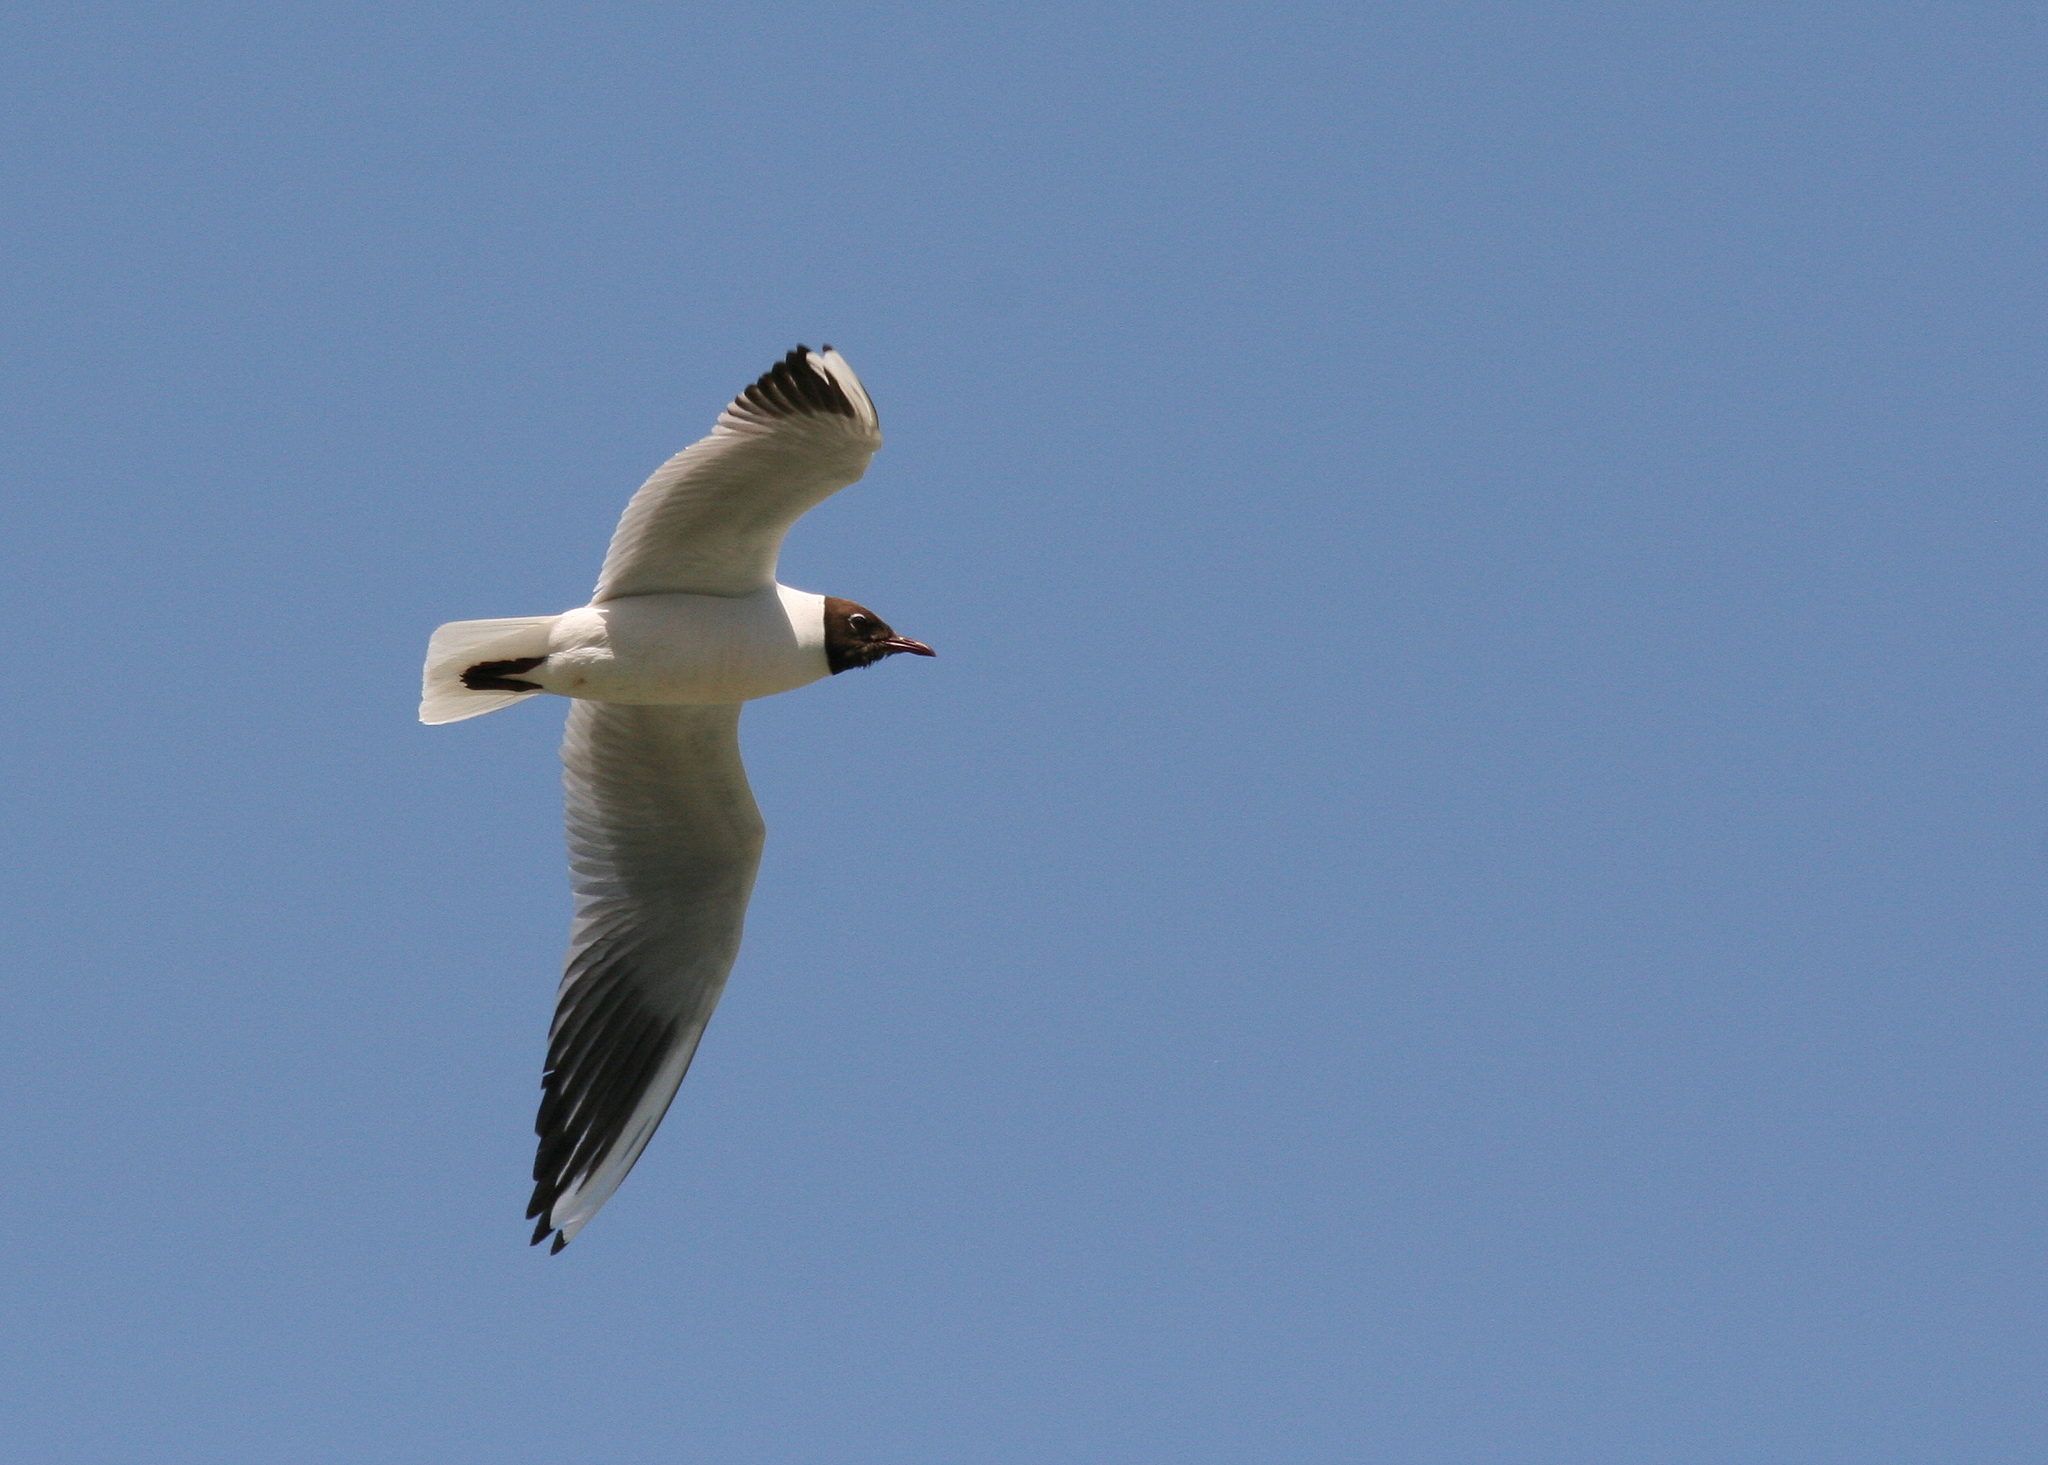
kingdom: Animalia
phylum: Chordata
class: Aves
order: Charadriiformes
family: Laridae
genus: Chroicocephalus
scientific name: Chroicocephalus ridibundus
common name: Black-headed gull
